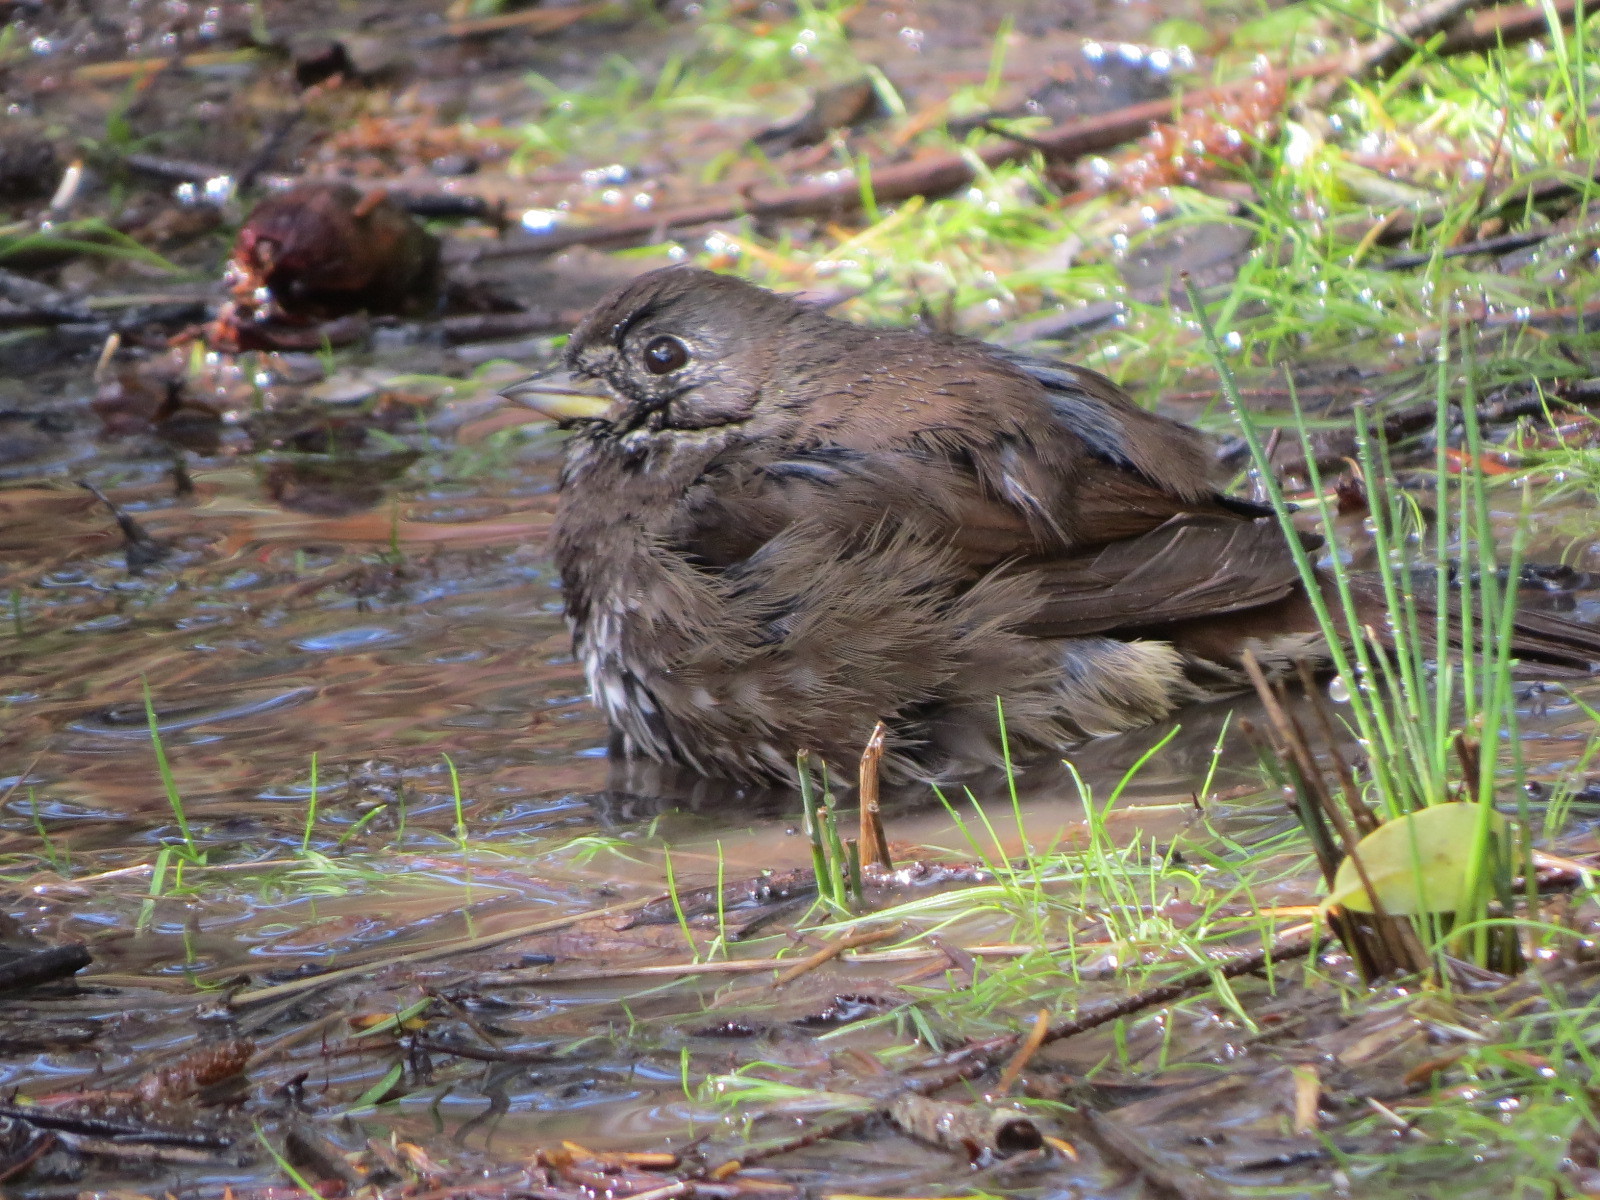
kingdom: Animalia
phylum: Chordata
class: Aves
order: Passeriformes
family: Passerellidae
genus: Passerella
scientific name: Passerella iliaca
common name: Fox sparrow
